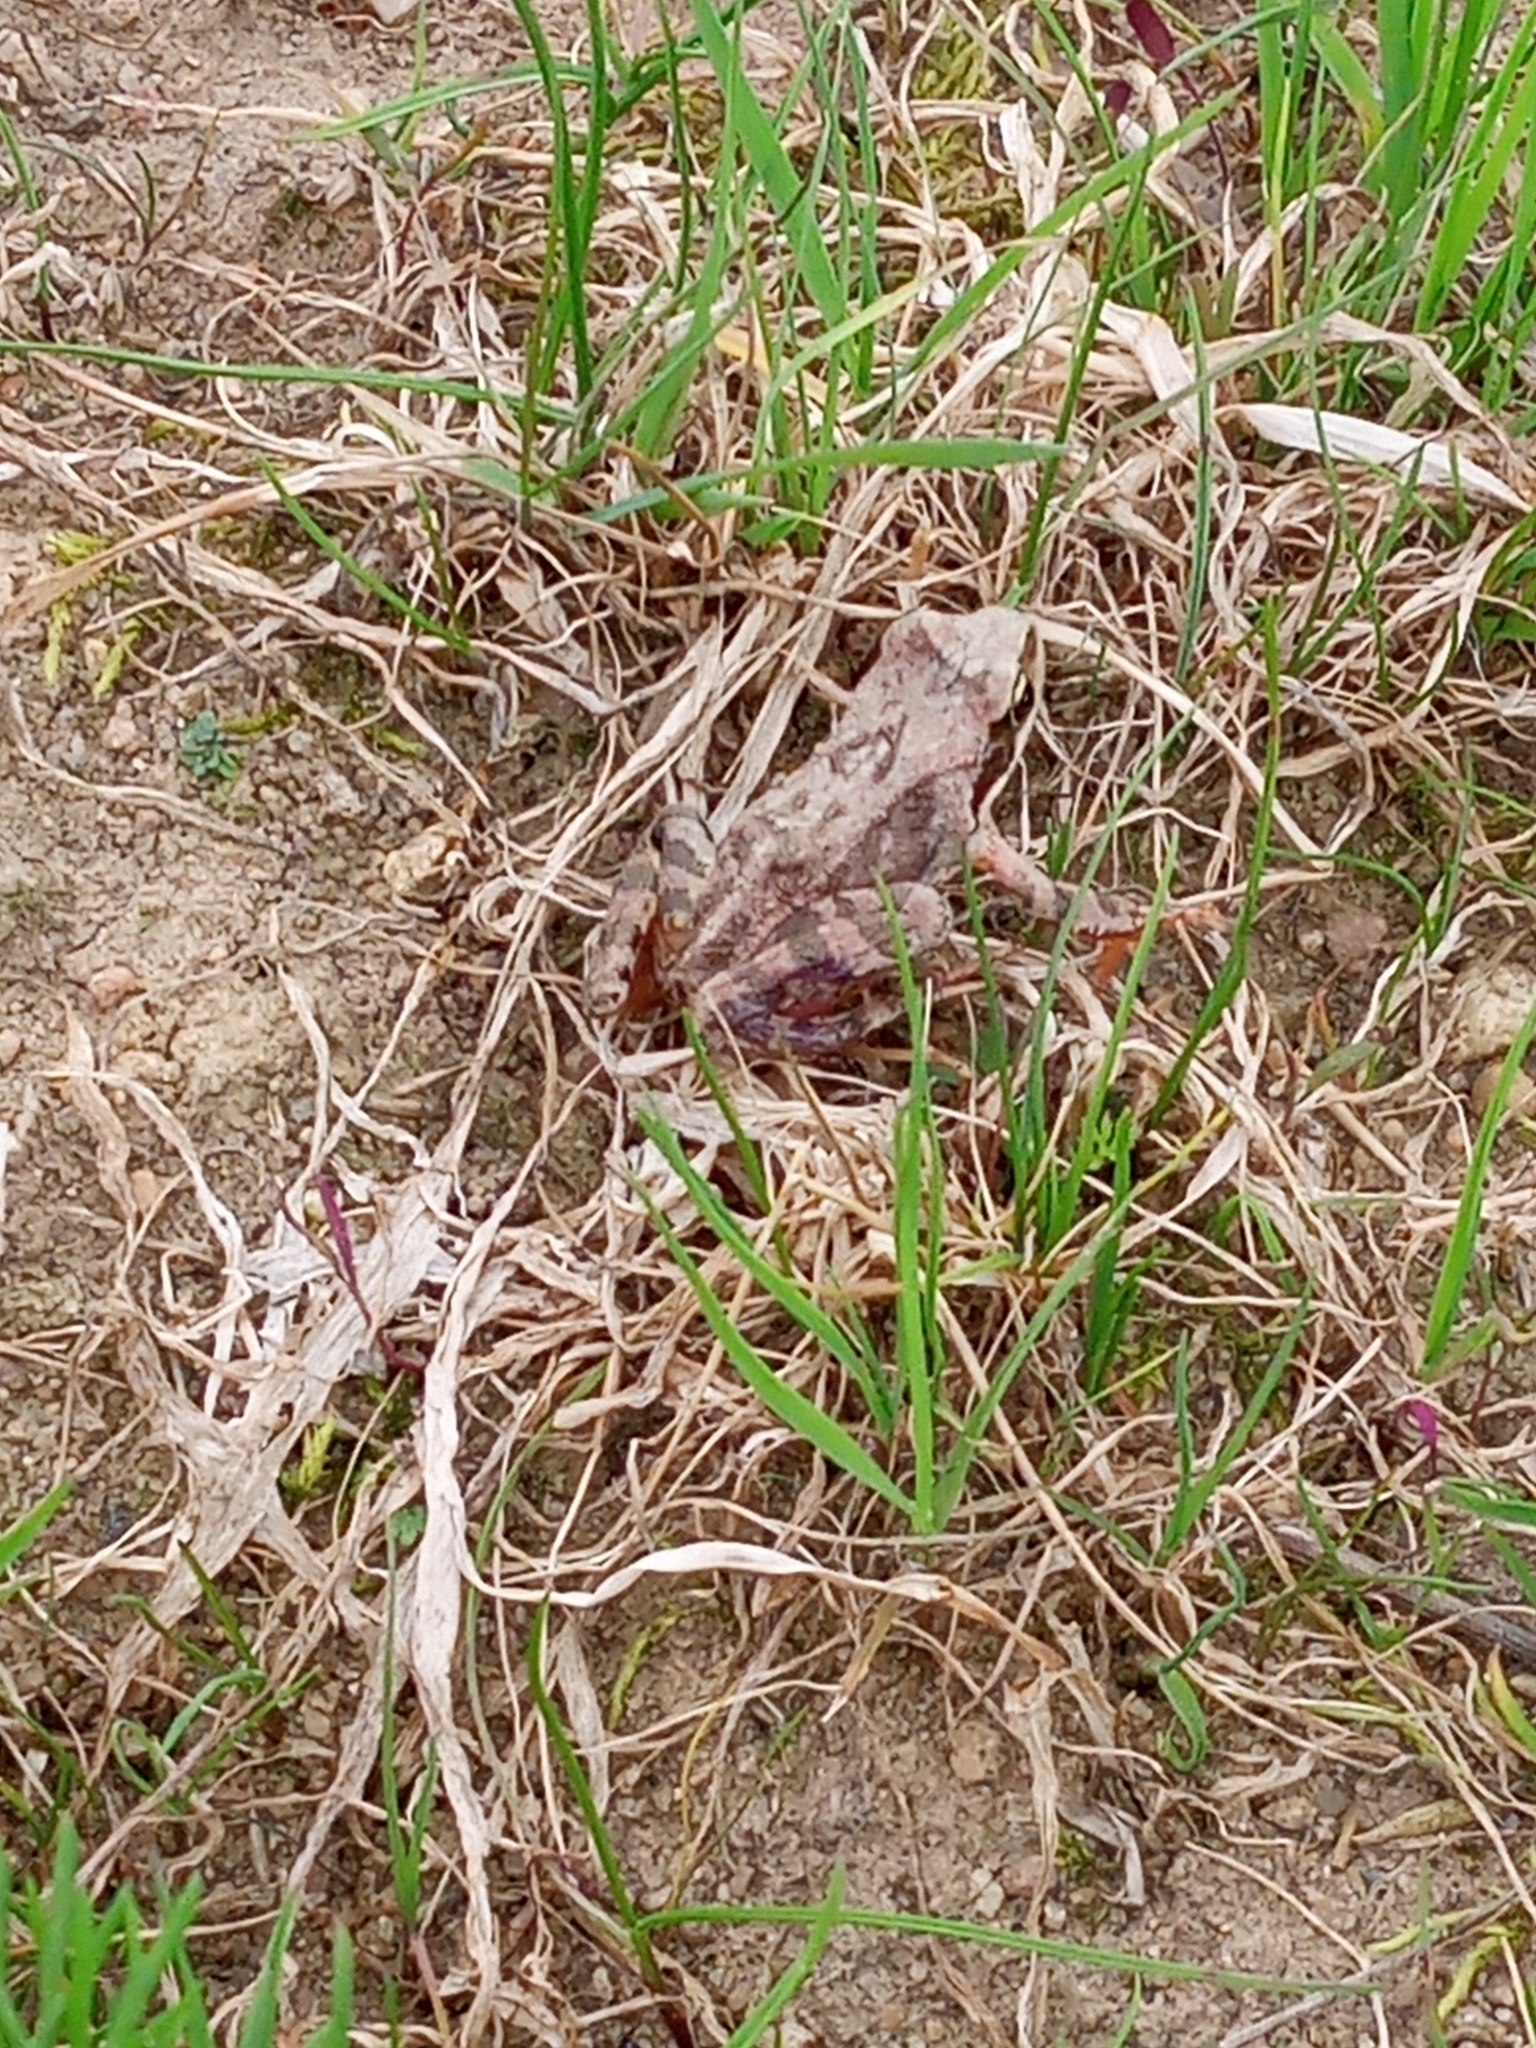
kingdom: Animalia
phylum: Chordata
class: Amphibia
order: Anura
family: Ranidae
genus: Rana
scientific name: Rana temporaria
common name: Common frog
